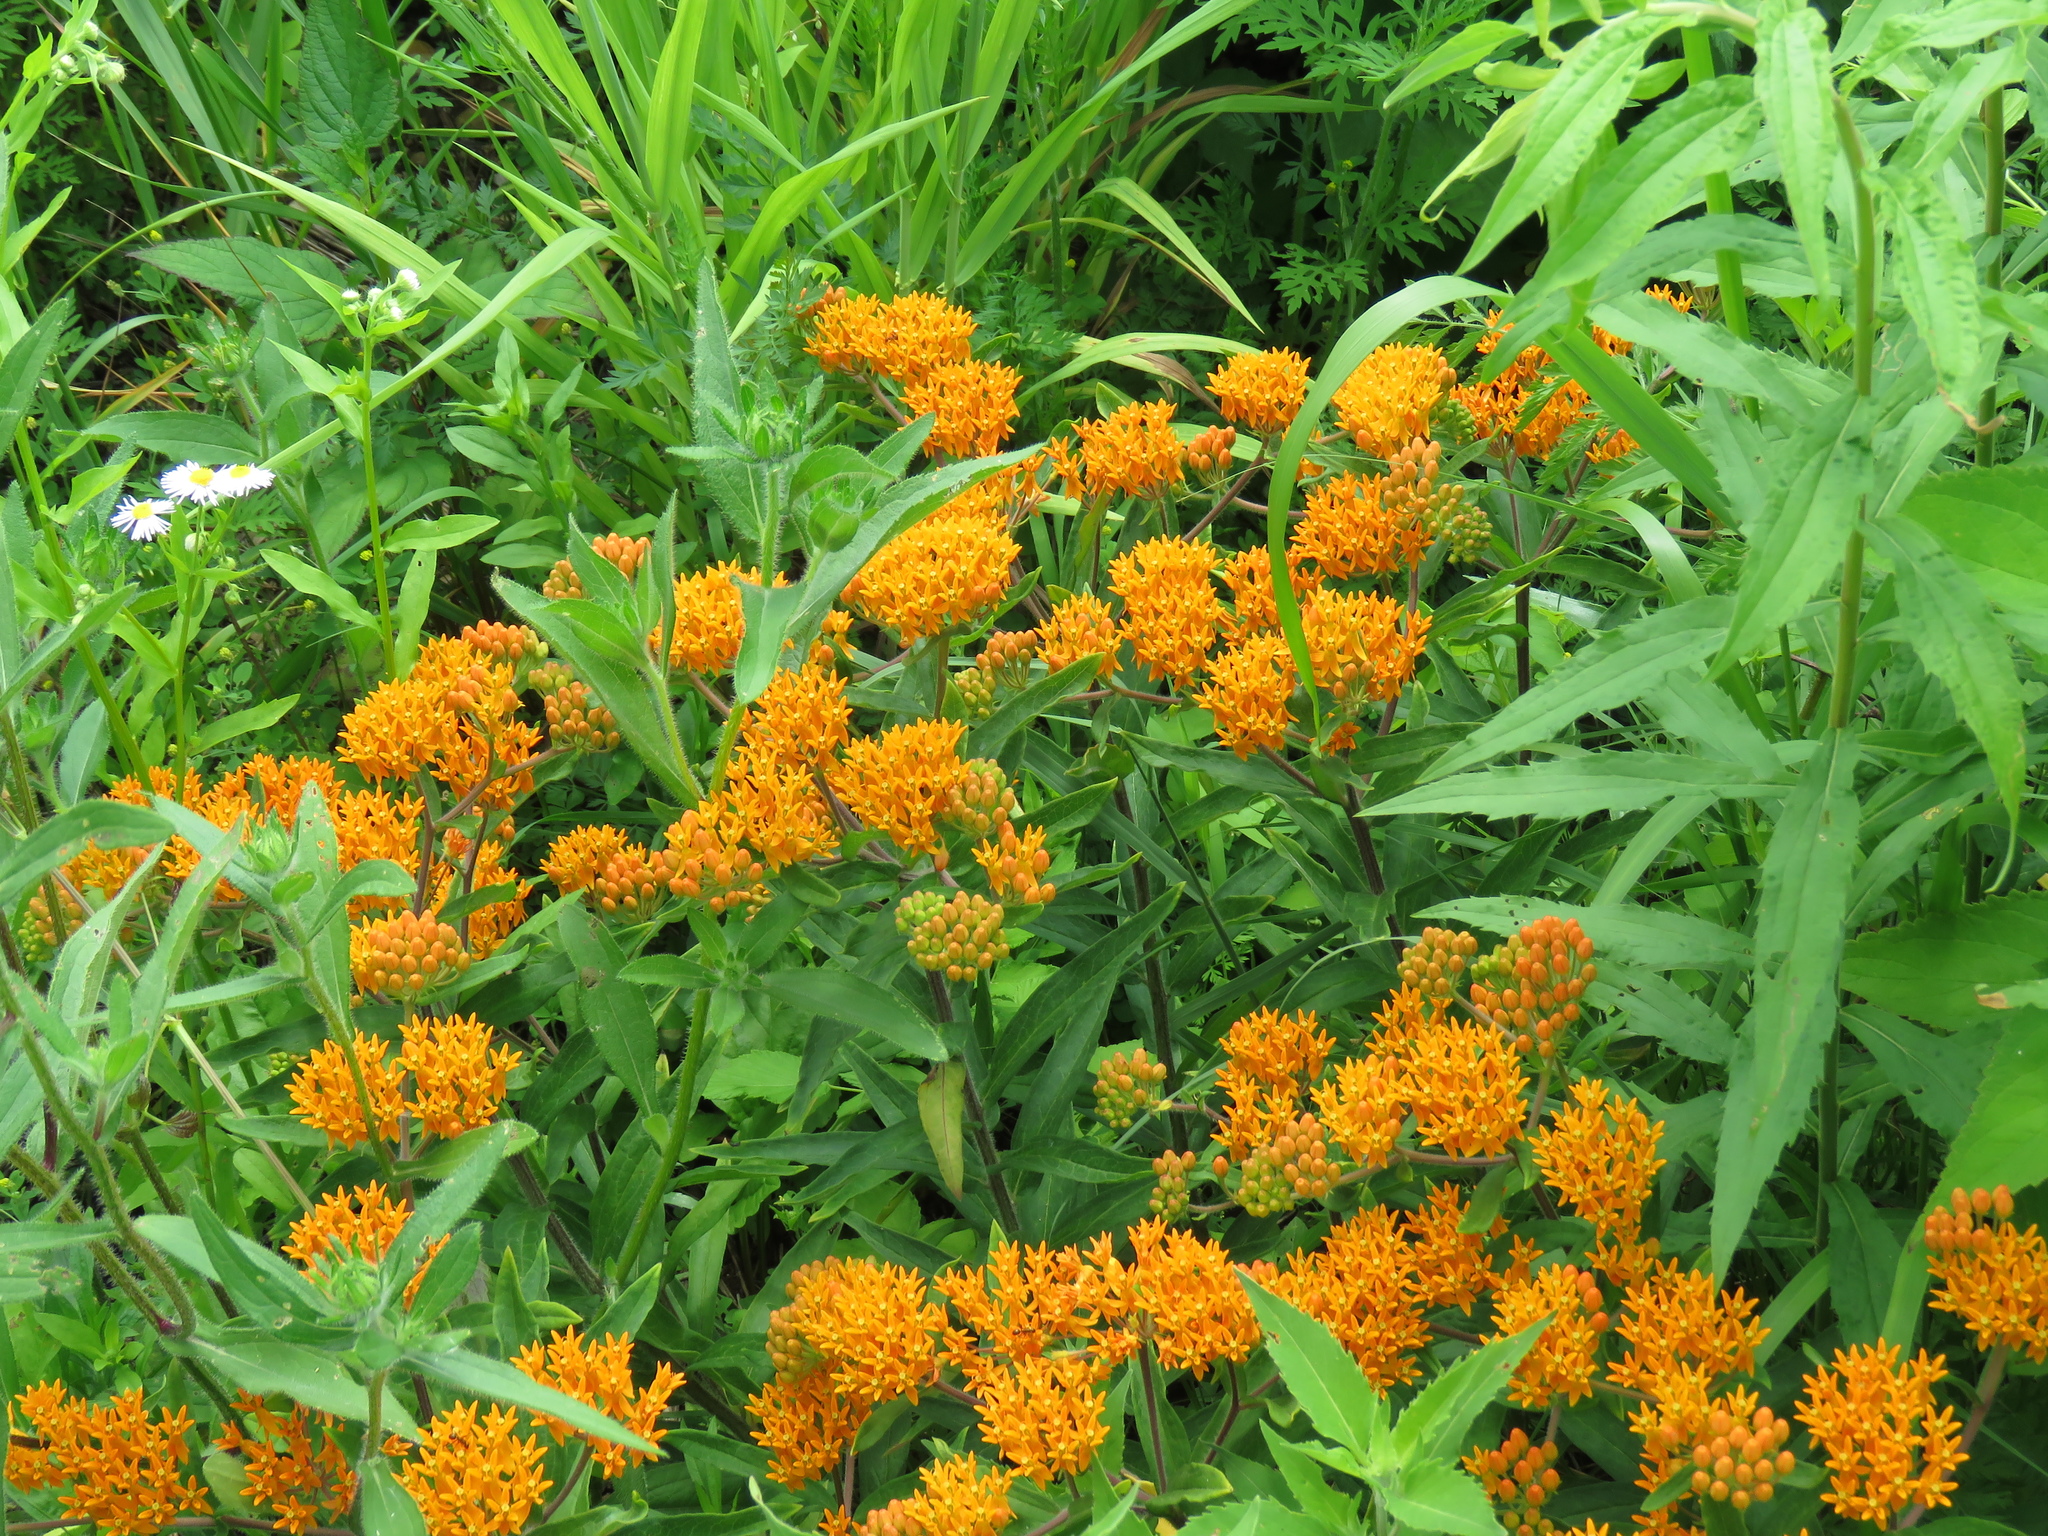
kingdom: Plantae
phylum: Tracheophyta
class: Magnoliopsida
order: Gentianales
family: Apocynaceae
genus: Asclepias
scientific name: Asclepias tuberosa
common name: Butterfly milkweed
